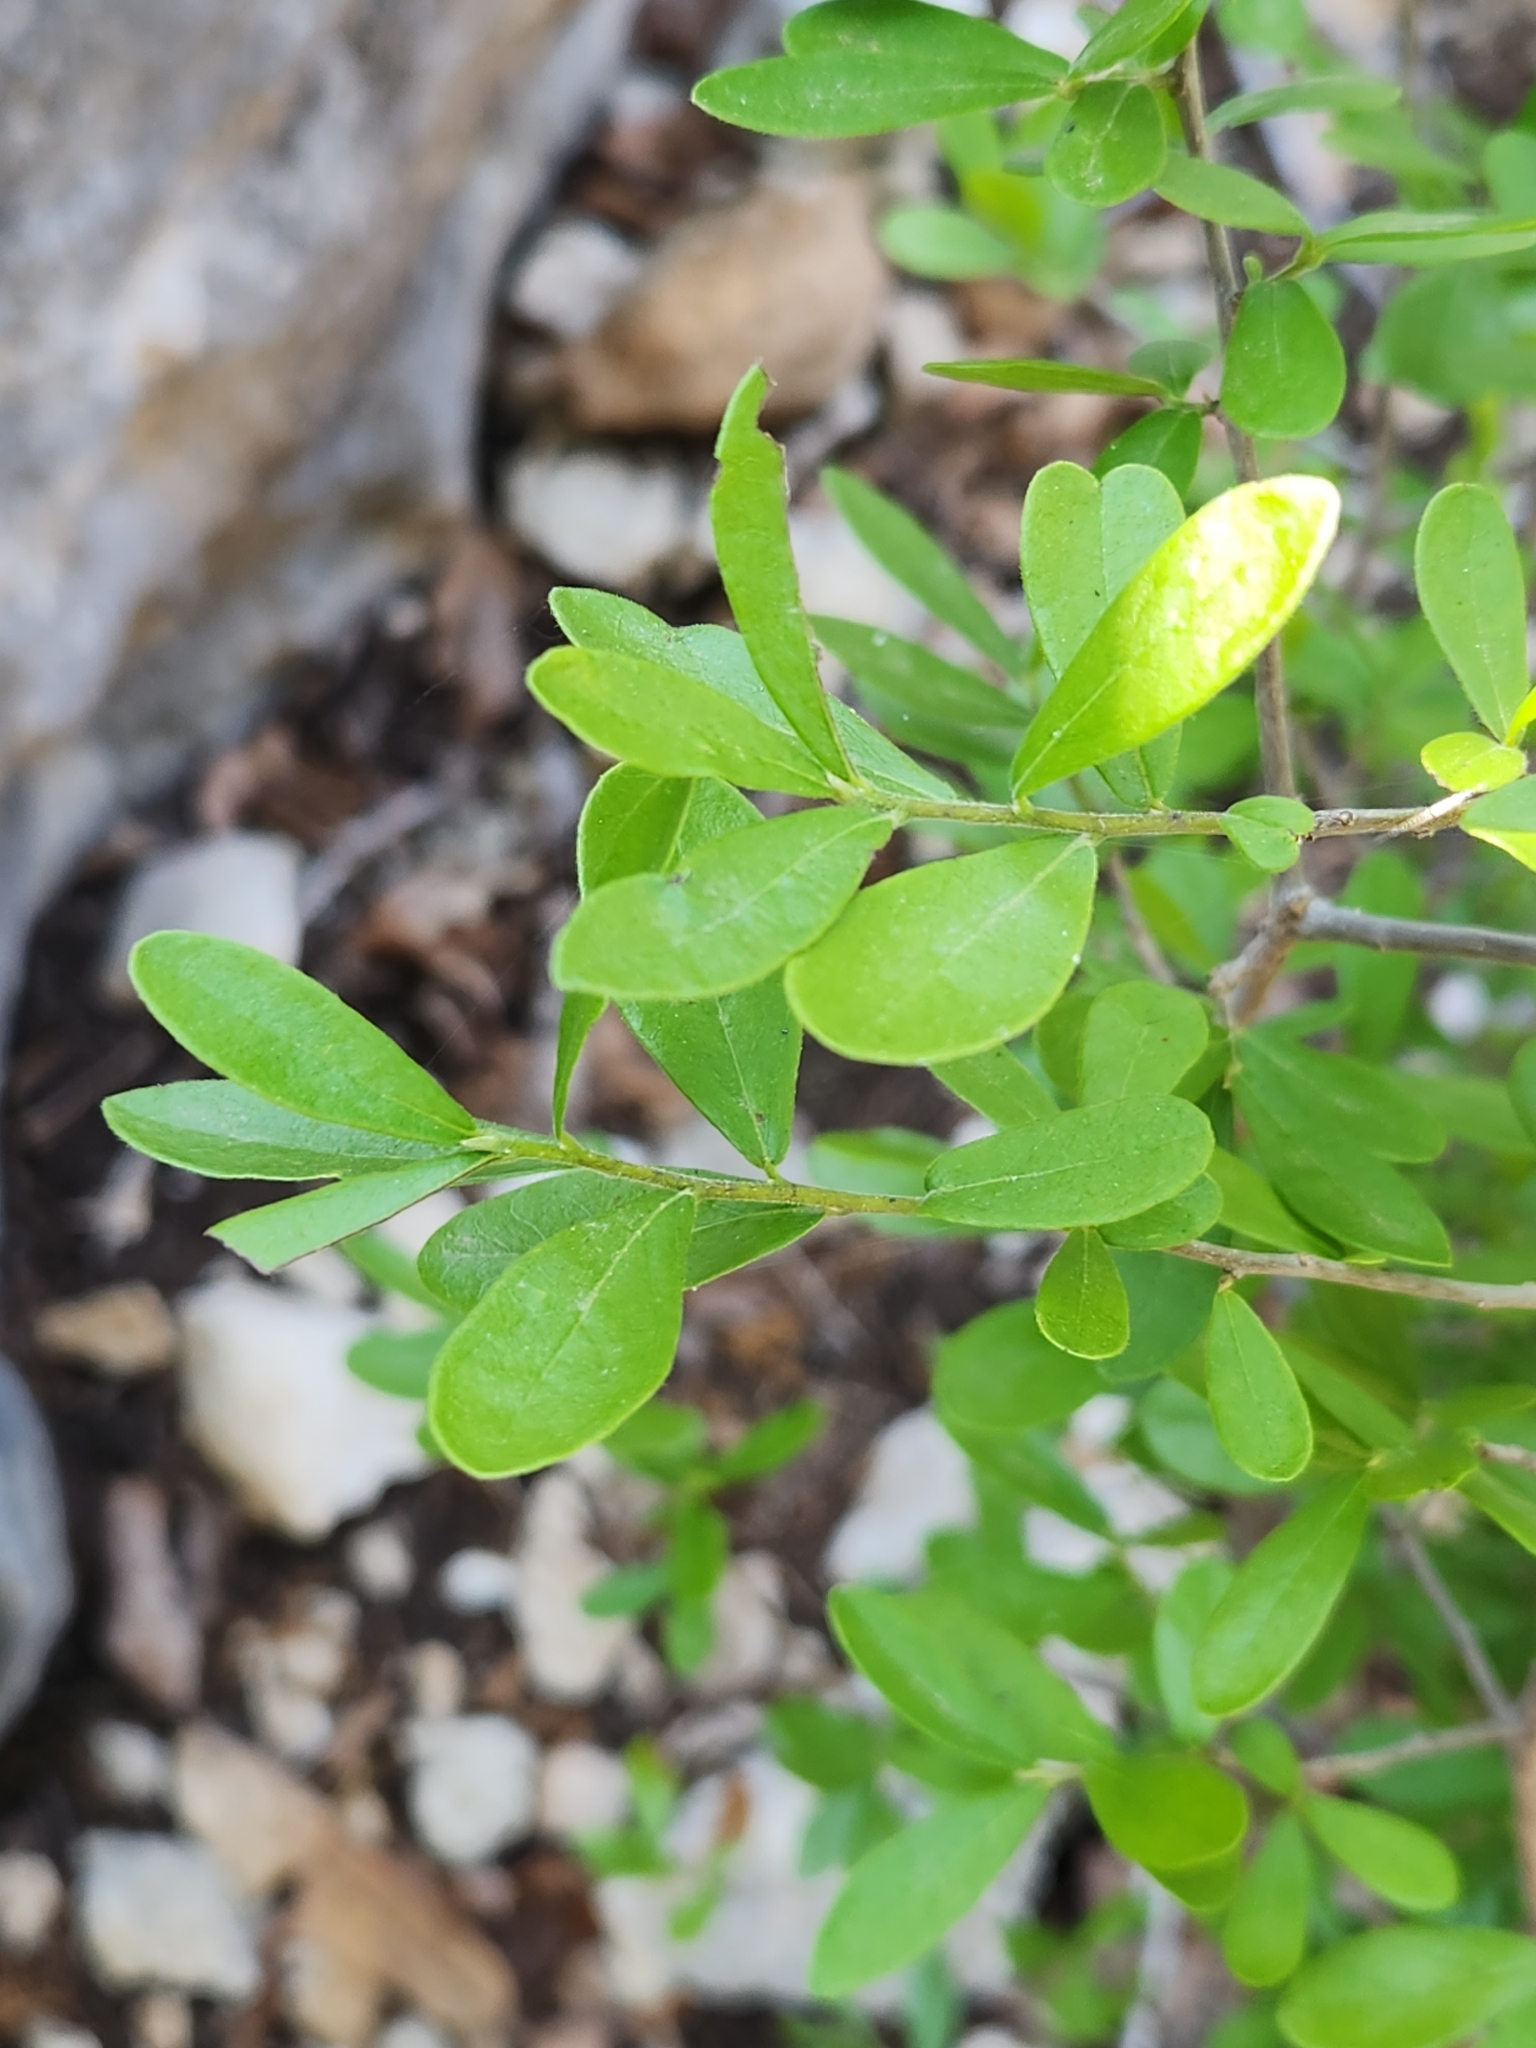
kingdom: Plantae
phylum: Tracheophyta
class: Magnoliopsida
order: Lamiales
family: Oleaceae
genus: Forestiera
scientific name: Forestiera pubescens
